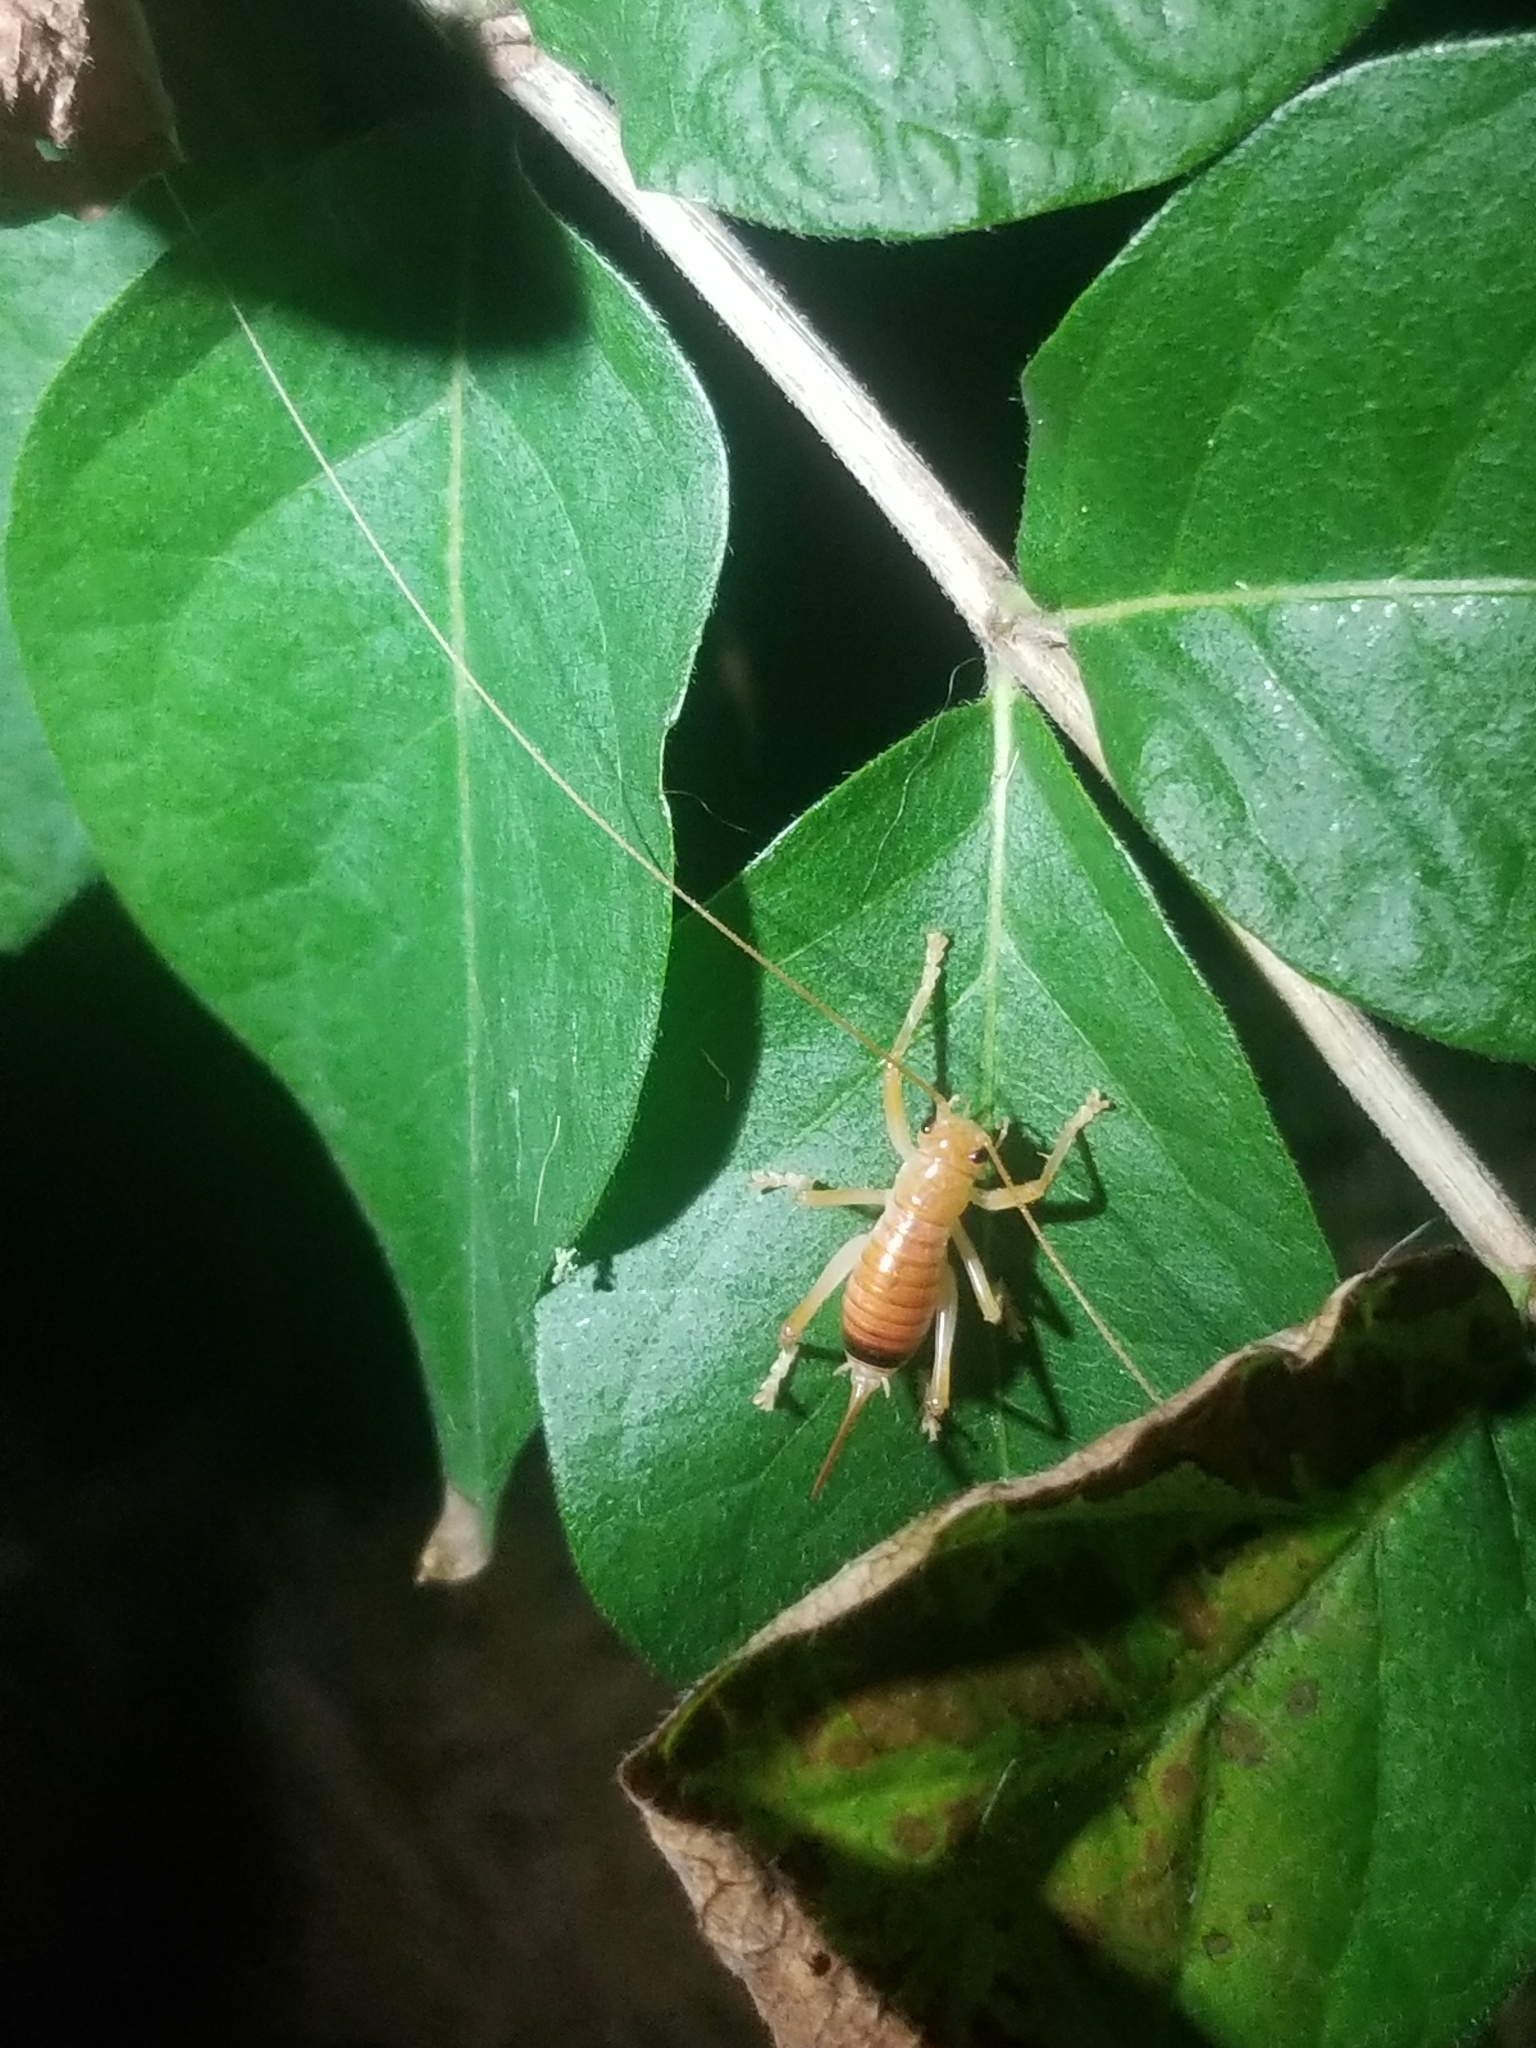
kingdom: Animalia
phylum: Arthropoda
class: Insecta
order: Orthoptera
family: Gryllacrididae
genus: Camptonotus
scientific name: Camptonotus carolinensis
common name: Carolina leaf-roller
